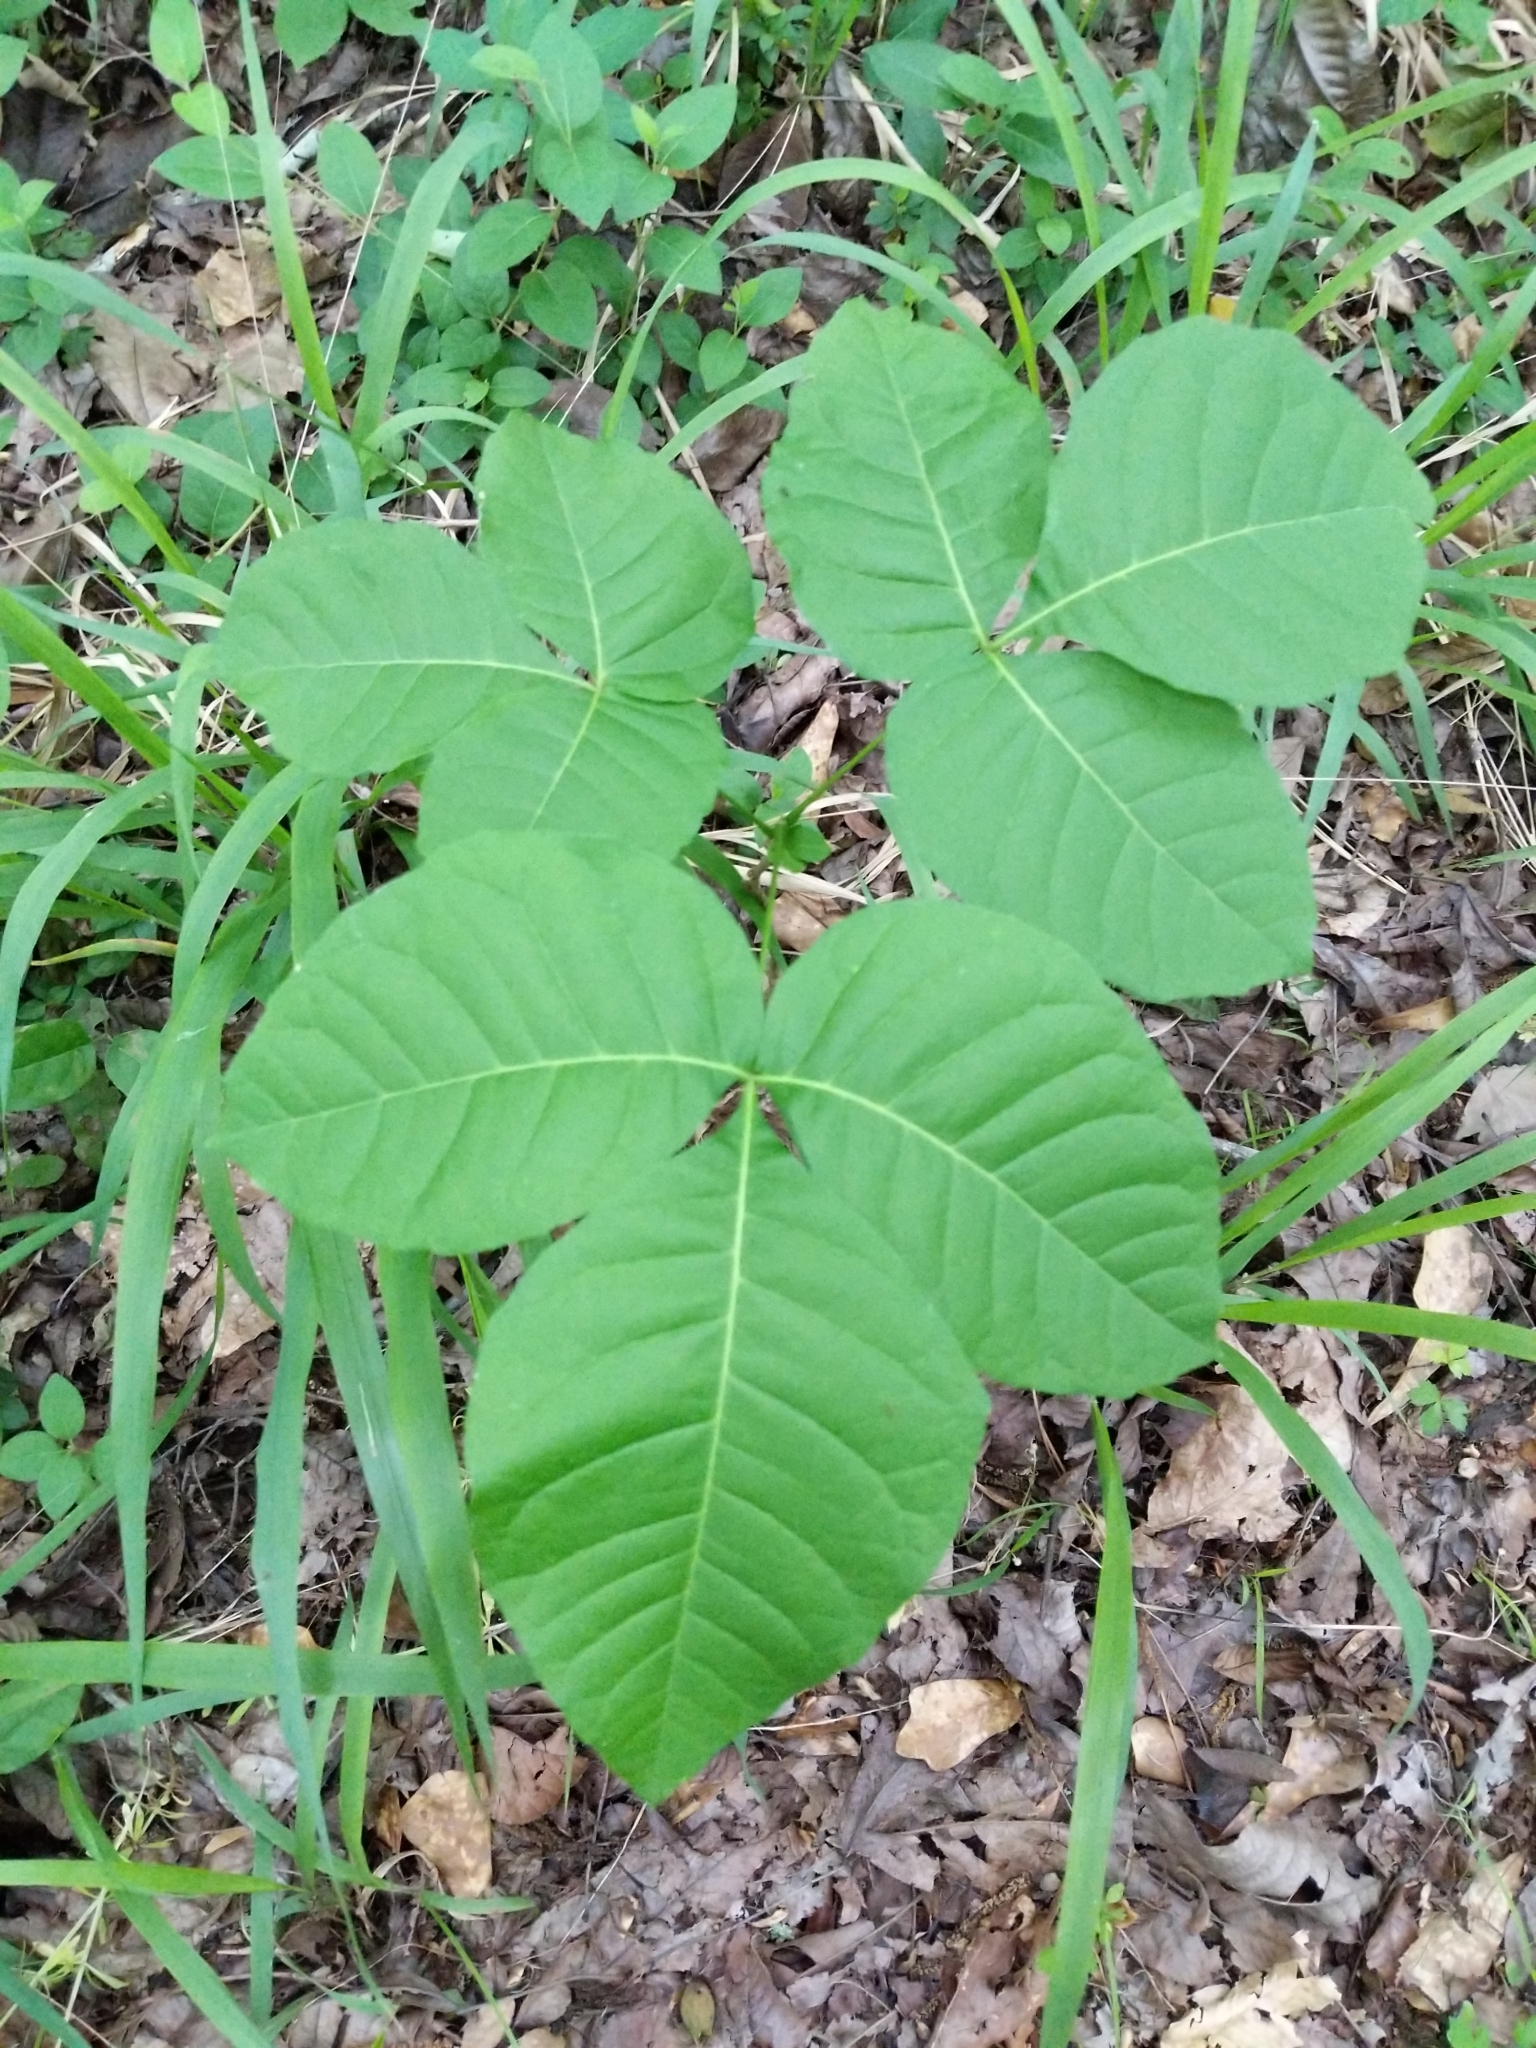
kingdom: Plantae
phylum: Tracheophyta
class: Magnoliopsida
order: Sapindales
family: Rutaceae
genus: Ptelea
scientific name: Ptelea trifoliata
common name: Common hop-tree
